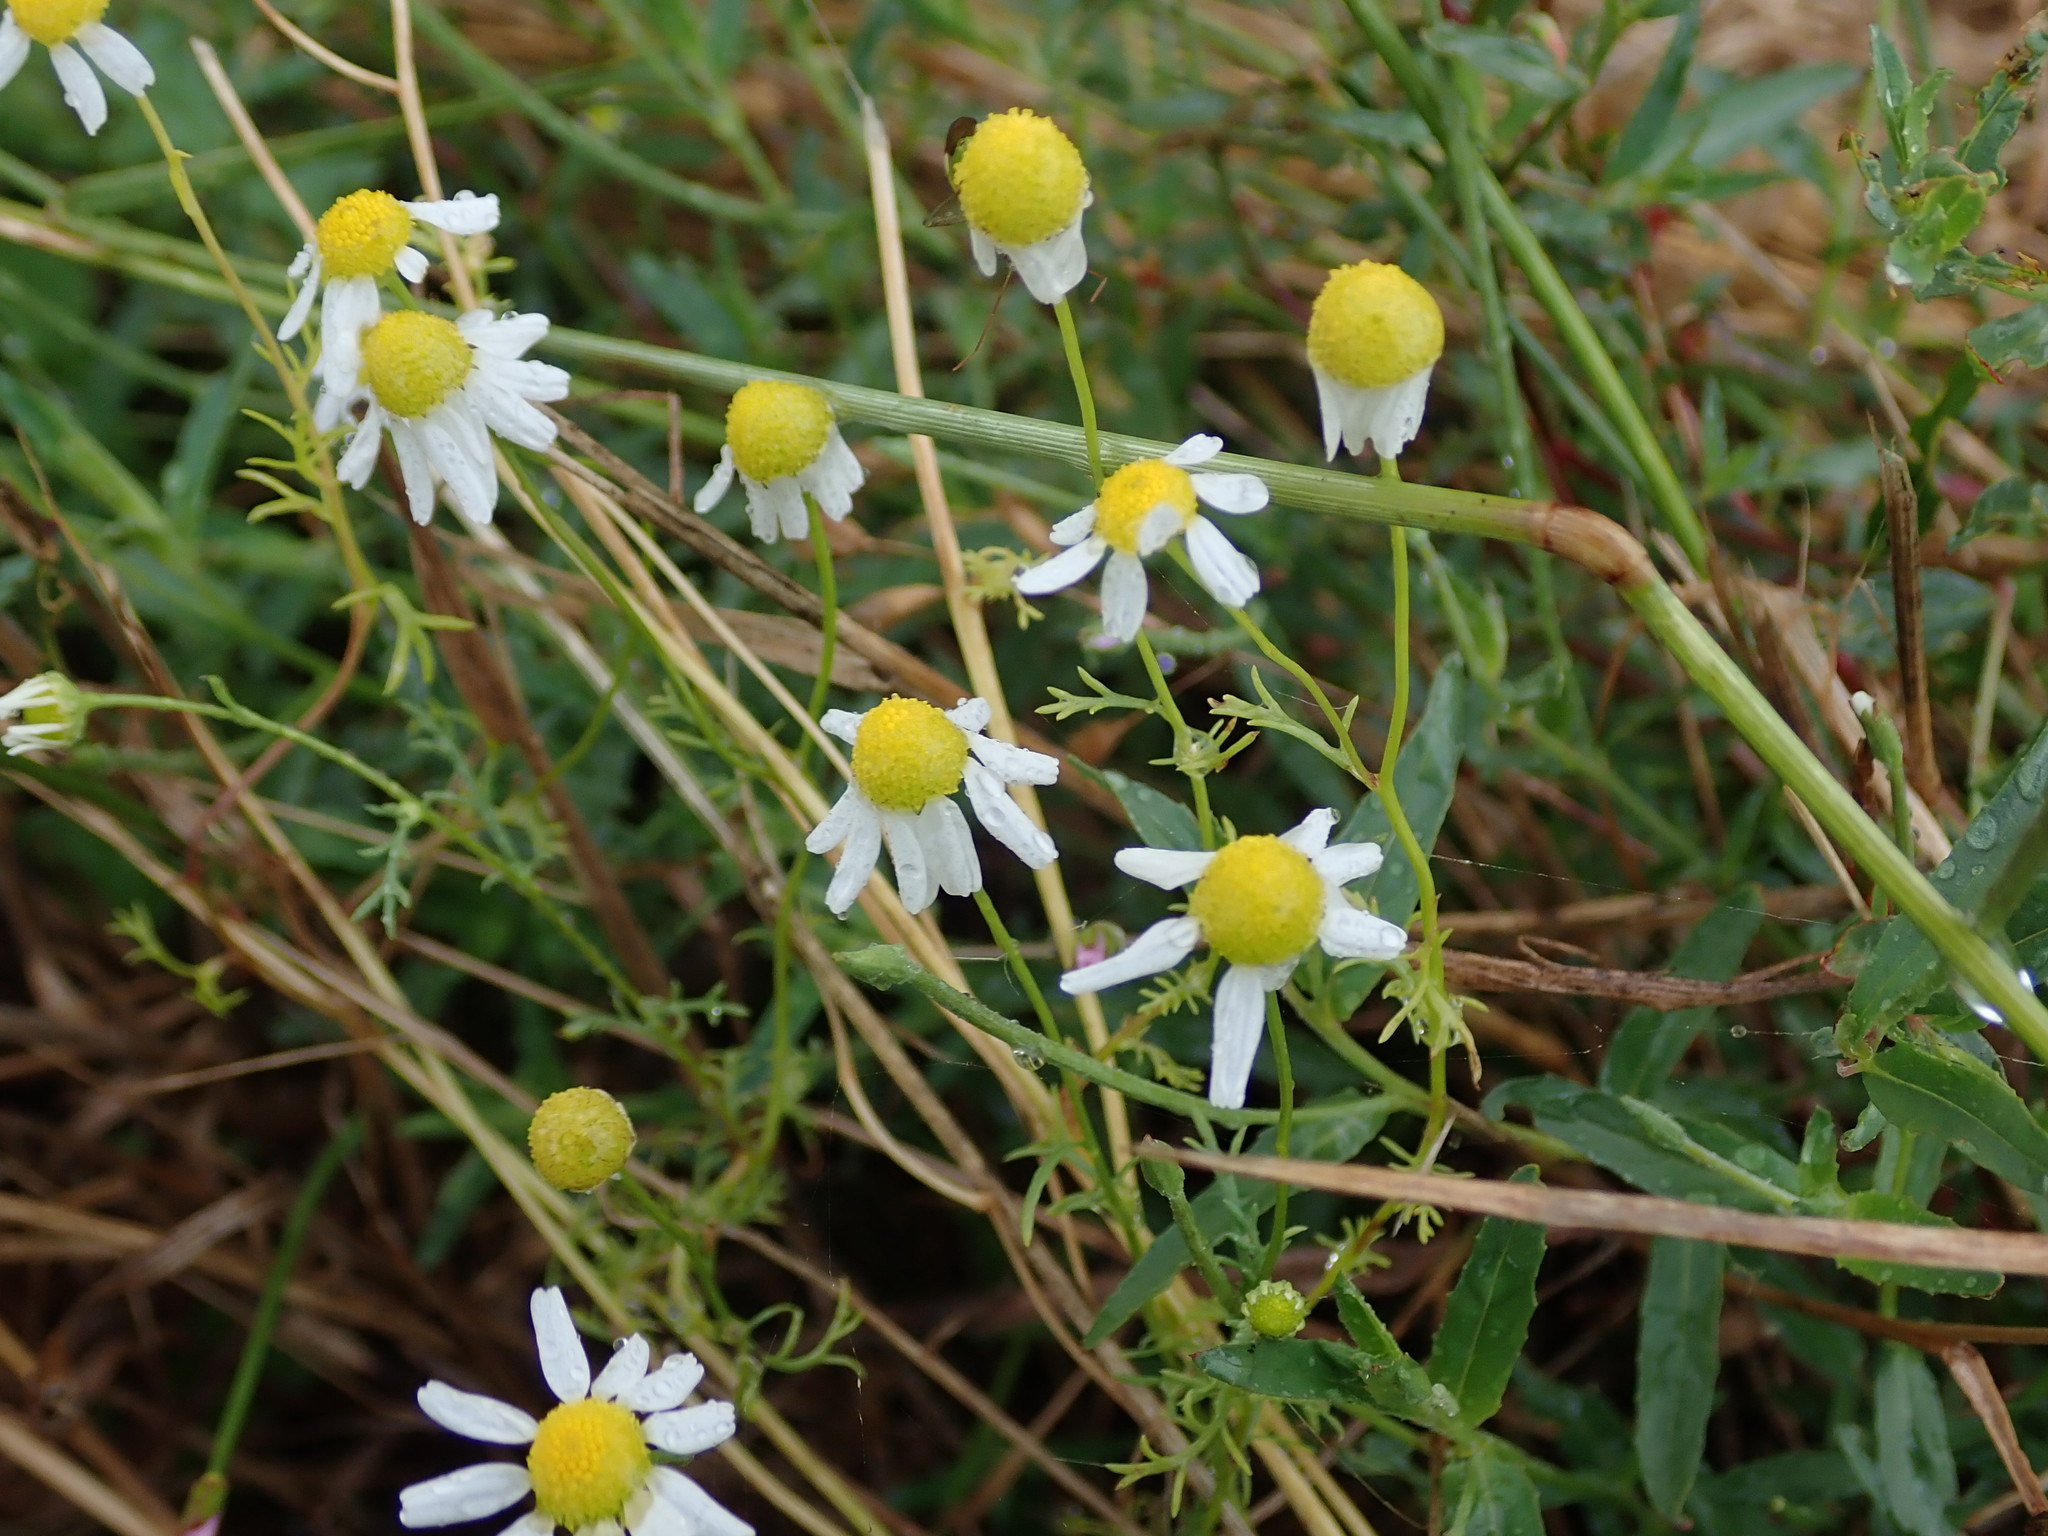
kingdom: Plantae
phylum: Tracheophyta
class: Magnoliopsida
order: Asterales
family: Asteraceae
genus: Matricaria
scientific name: Matricaria chamomilla
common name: Scented mayweed
